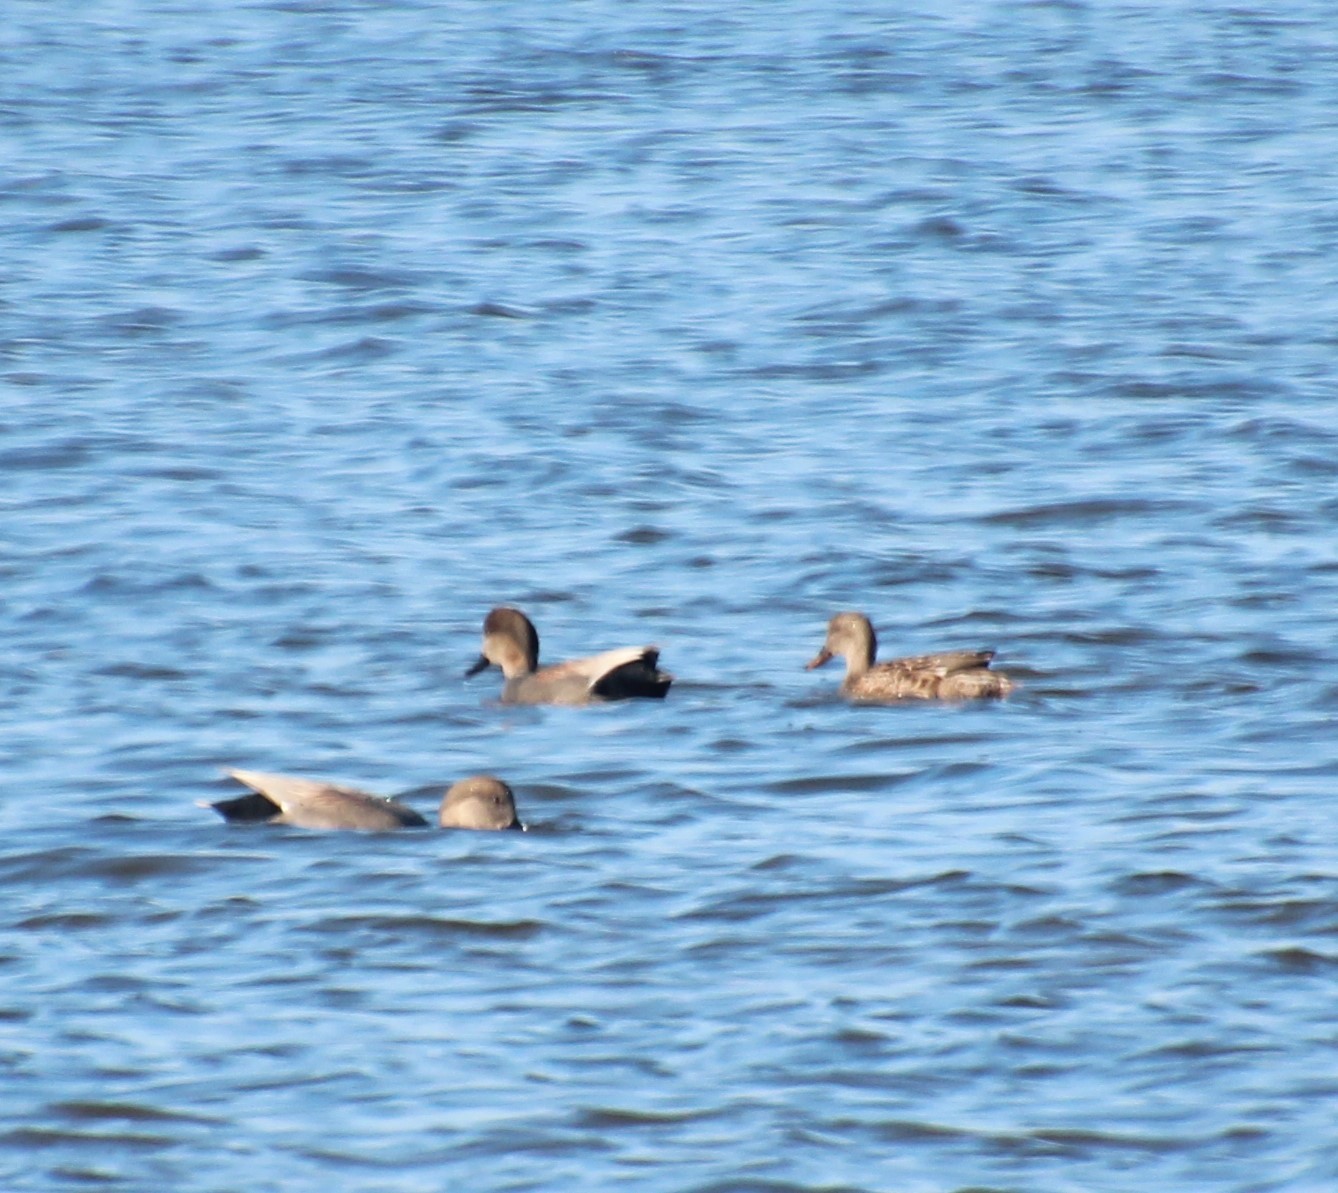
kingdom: Animalia
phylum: Chordata
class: Aves
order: Anseriformes
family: Anatidae
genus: Mareca
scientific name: Mareca strepera
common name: Gadwall
